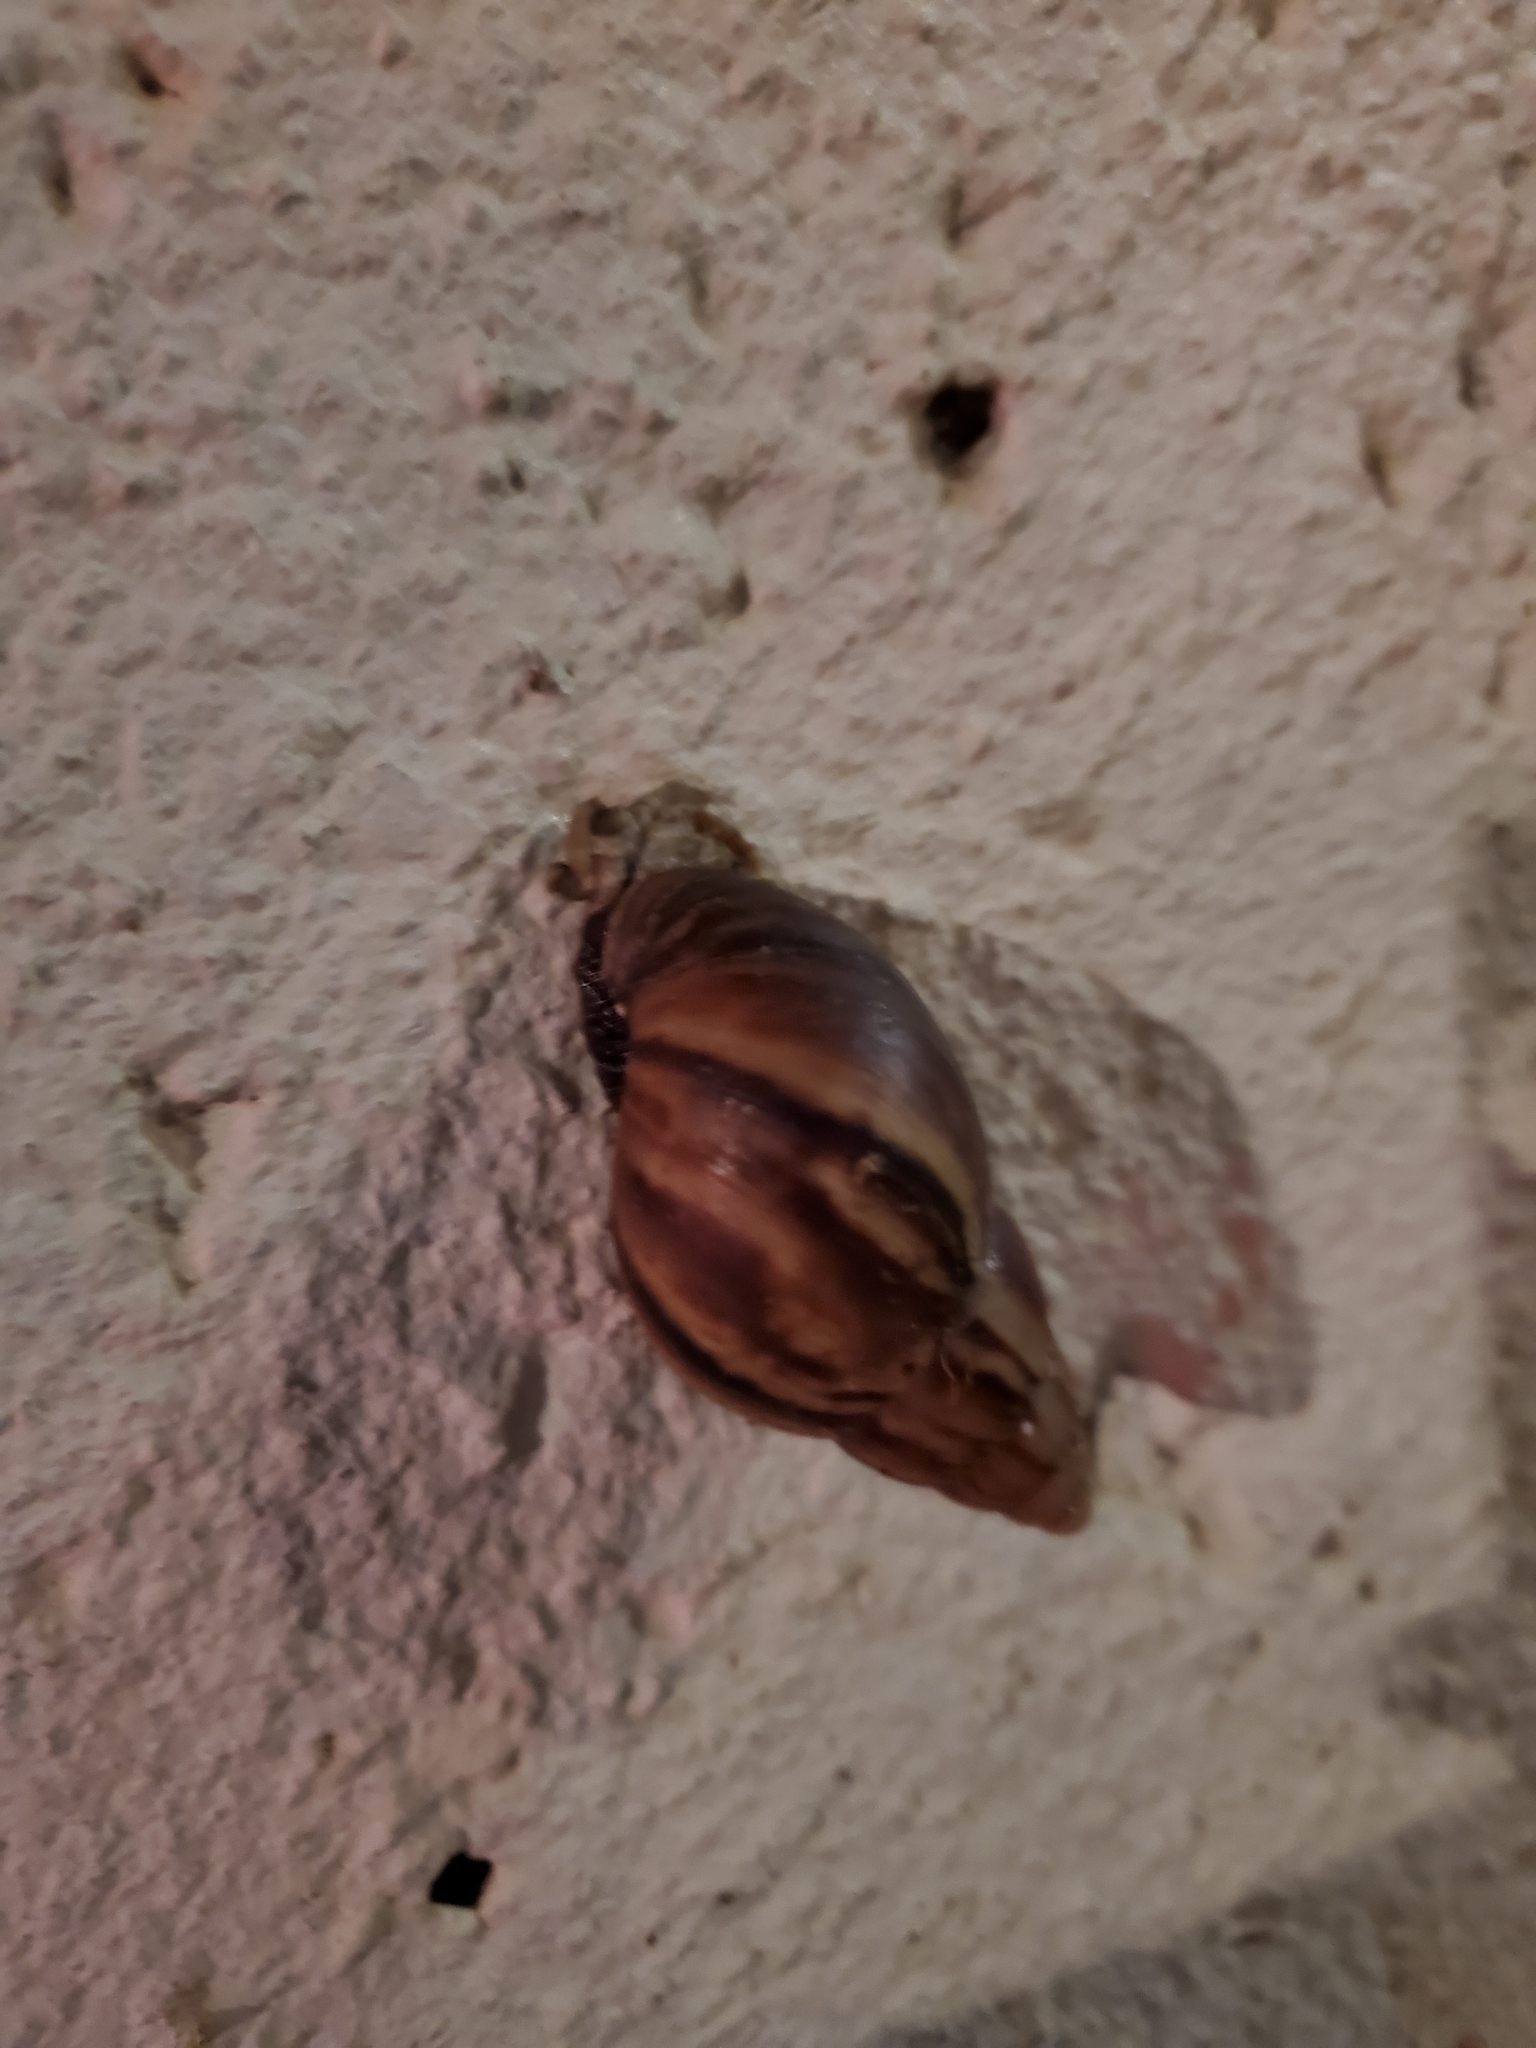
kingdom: Animalia
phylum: Mollusca
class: Gastropoda
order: Stylommatophora
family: Achatinidae
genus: Lissachatina
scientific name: Lissachatina fulica
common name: Giant african snail
